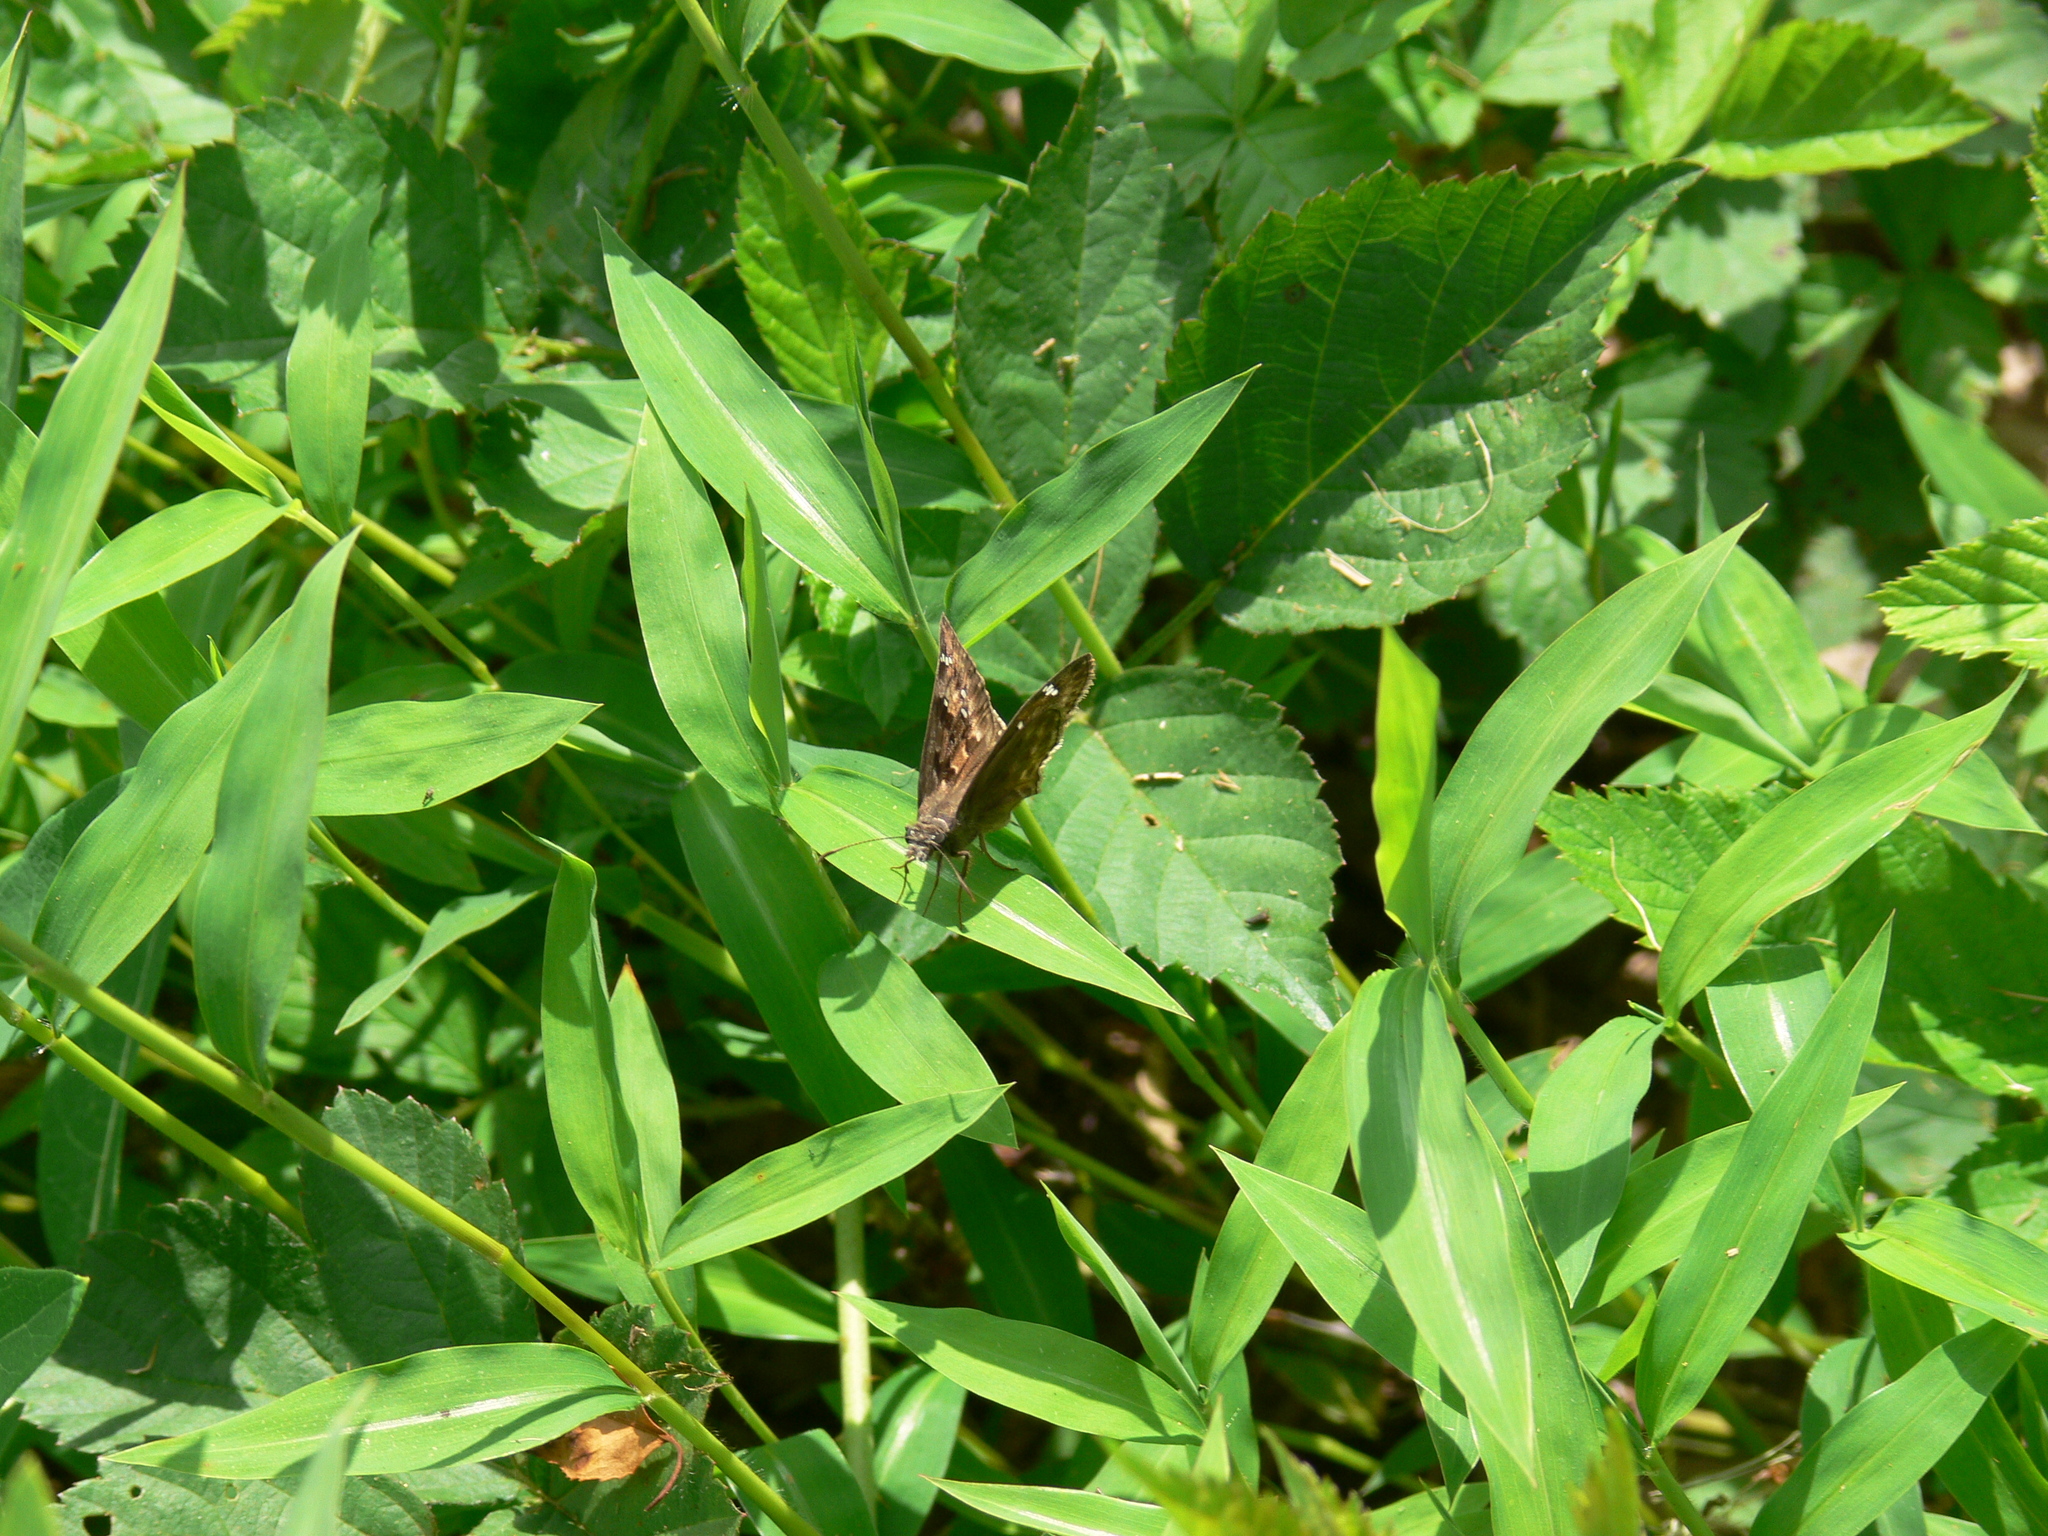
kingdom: Animalia
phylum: Arthropoda
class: Insecta
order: Lepidoptera
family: Hesperiidae
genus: Erynnis
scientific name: Erynnis horatius
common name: Horace's duskywing
